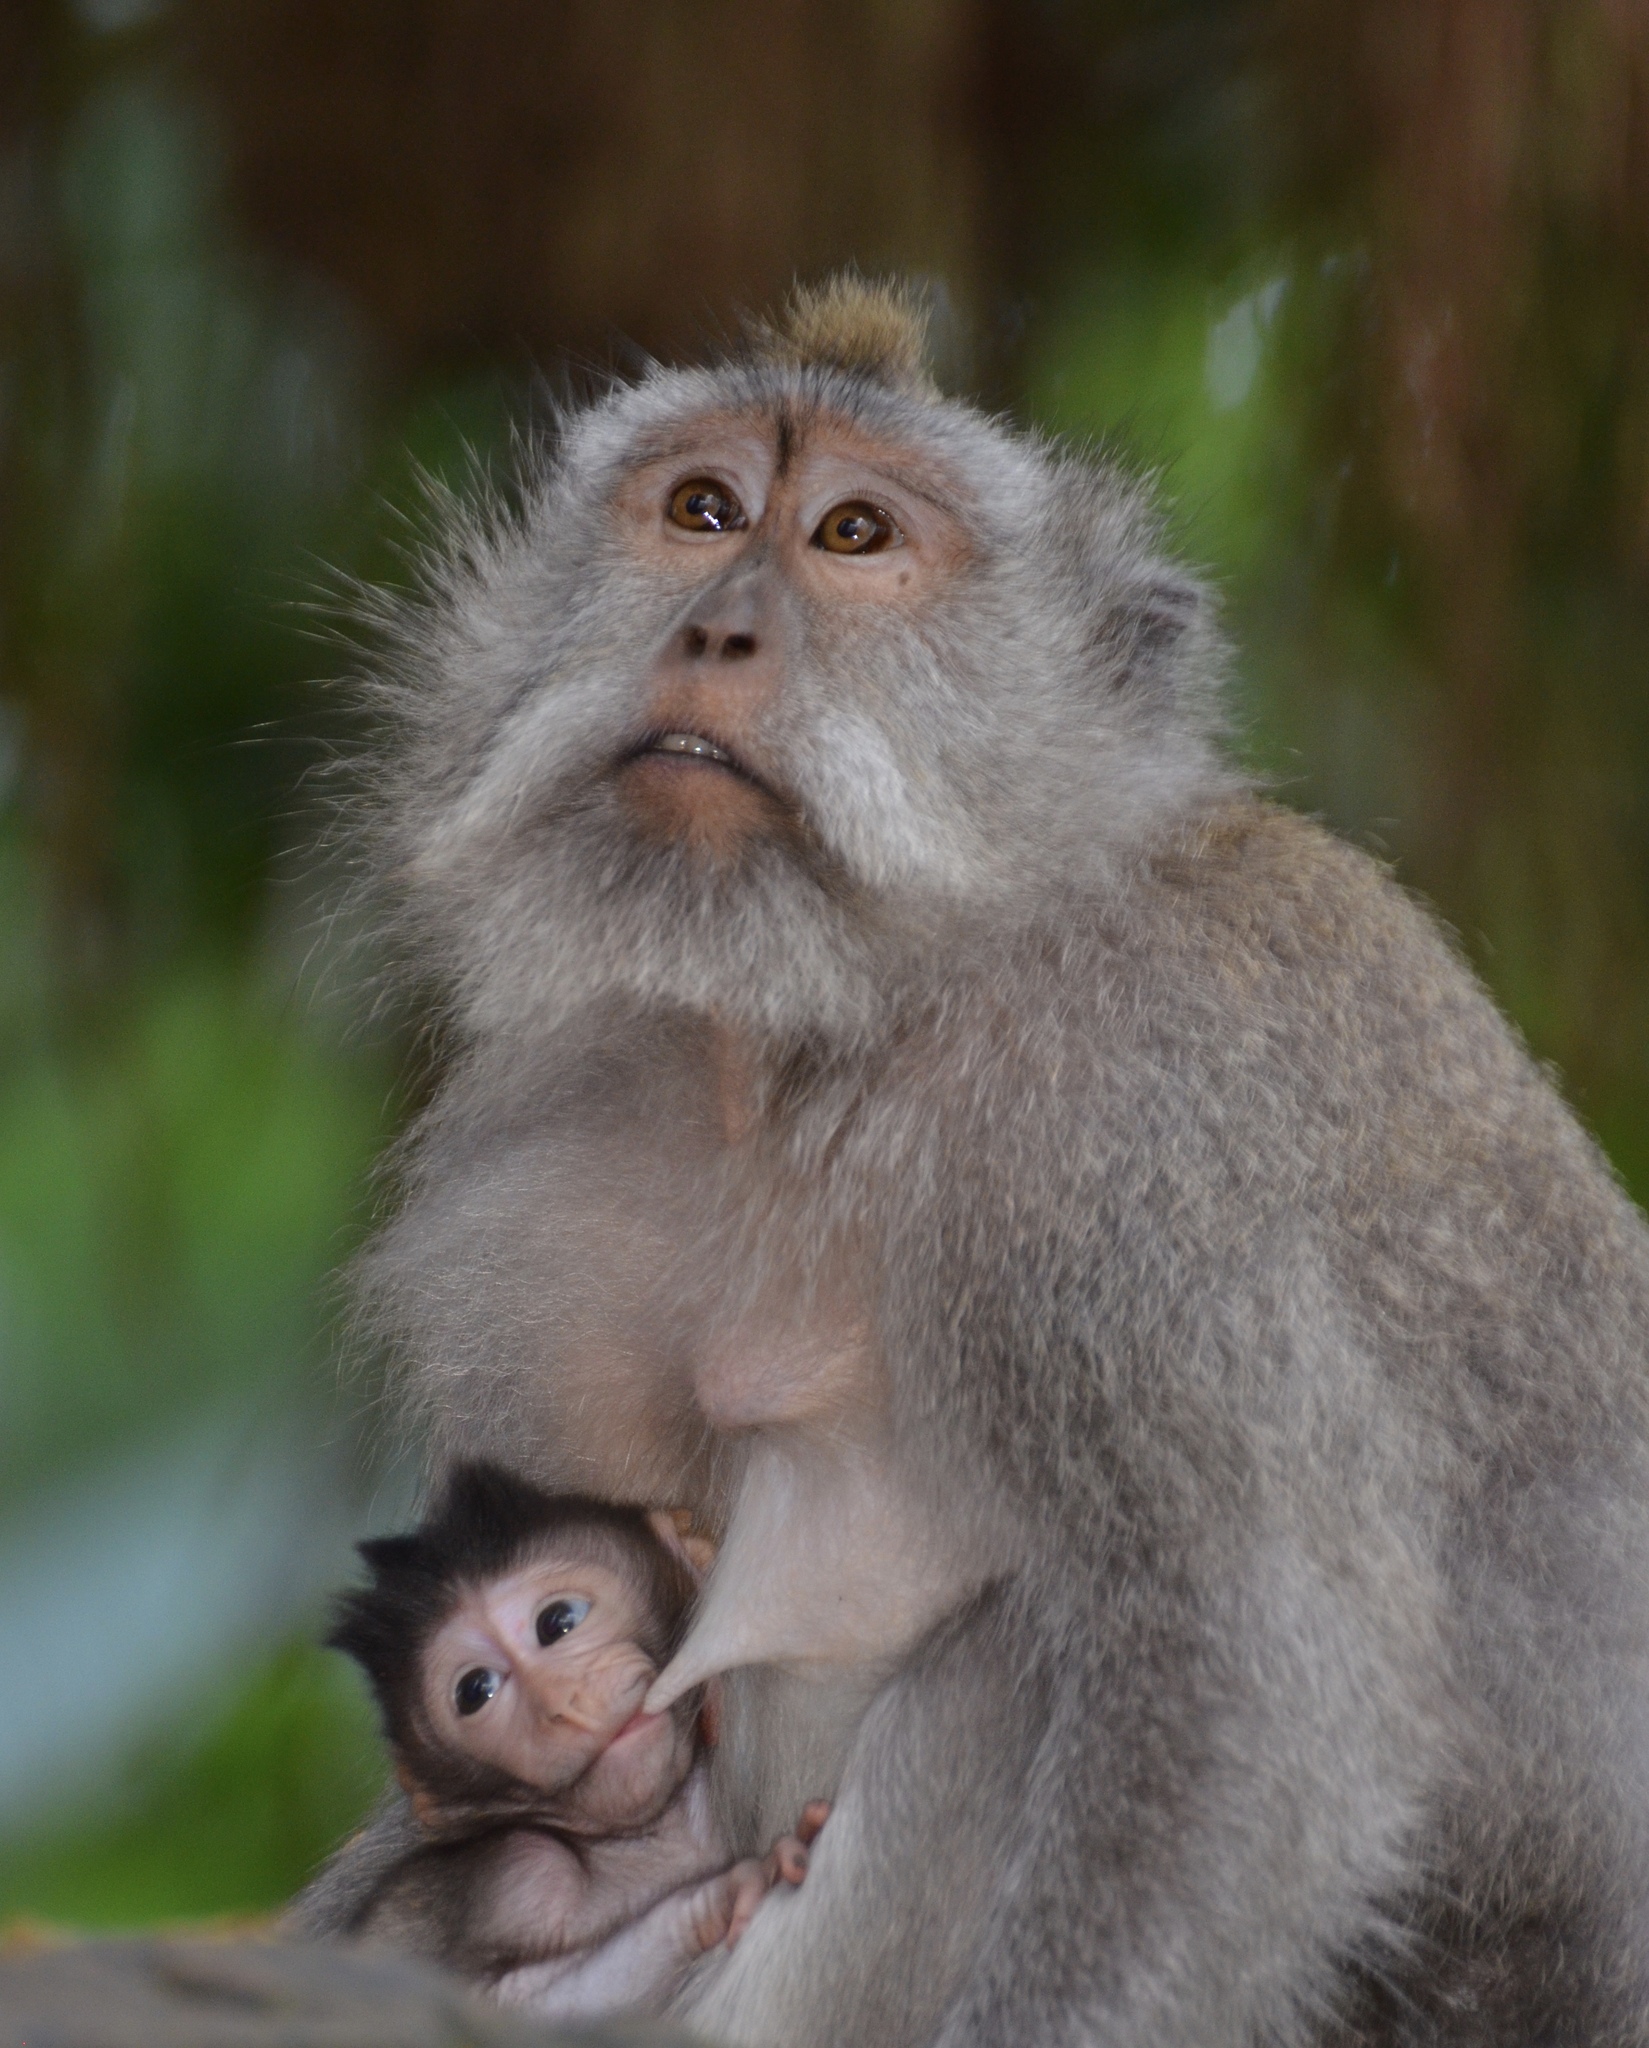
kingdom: Animalia
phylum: Chordata
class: Mammalia
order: Primates
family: Cercopithecidae
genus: Macaca
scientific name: Macaca fascicularis
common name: Crab-eating macaque
